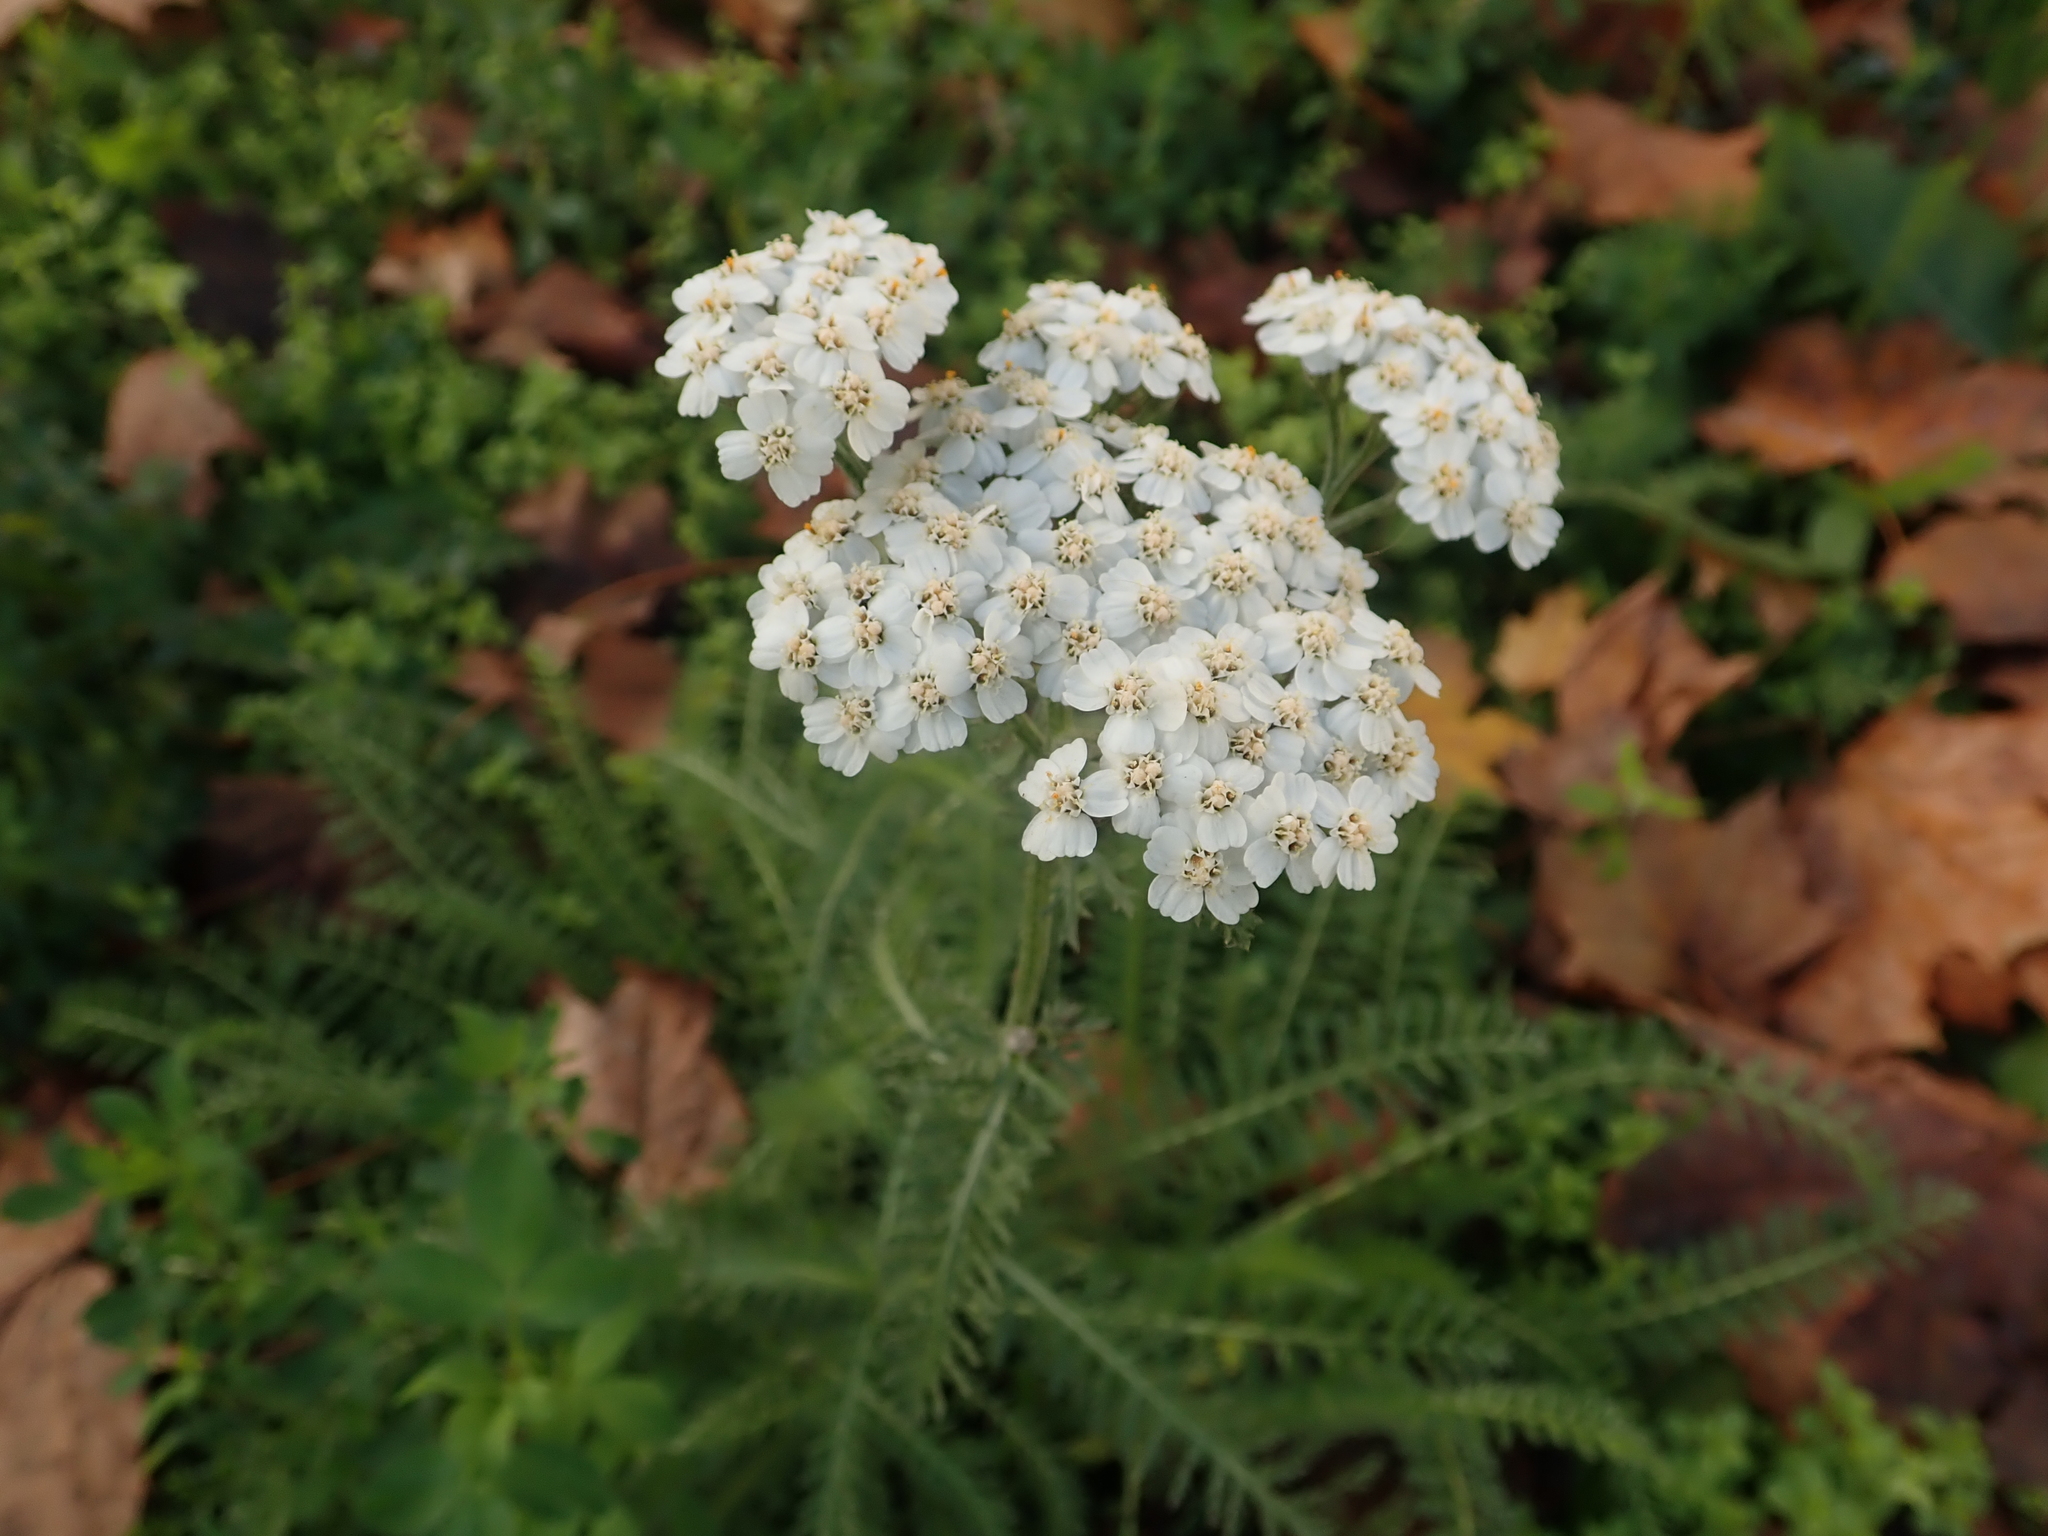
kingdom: Plantae
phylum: Tracheophyta
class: Magnoliopsida
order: Asterales
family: Asteraceae
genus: Achillea
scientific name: Achillea millefolium
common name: Yarrow
